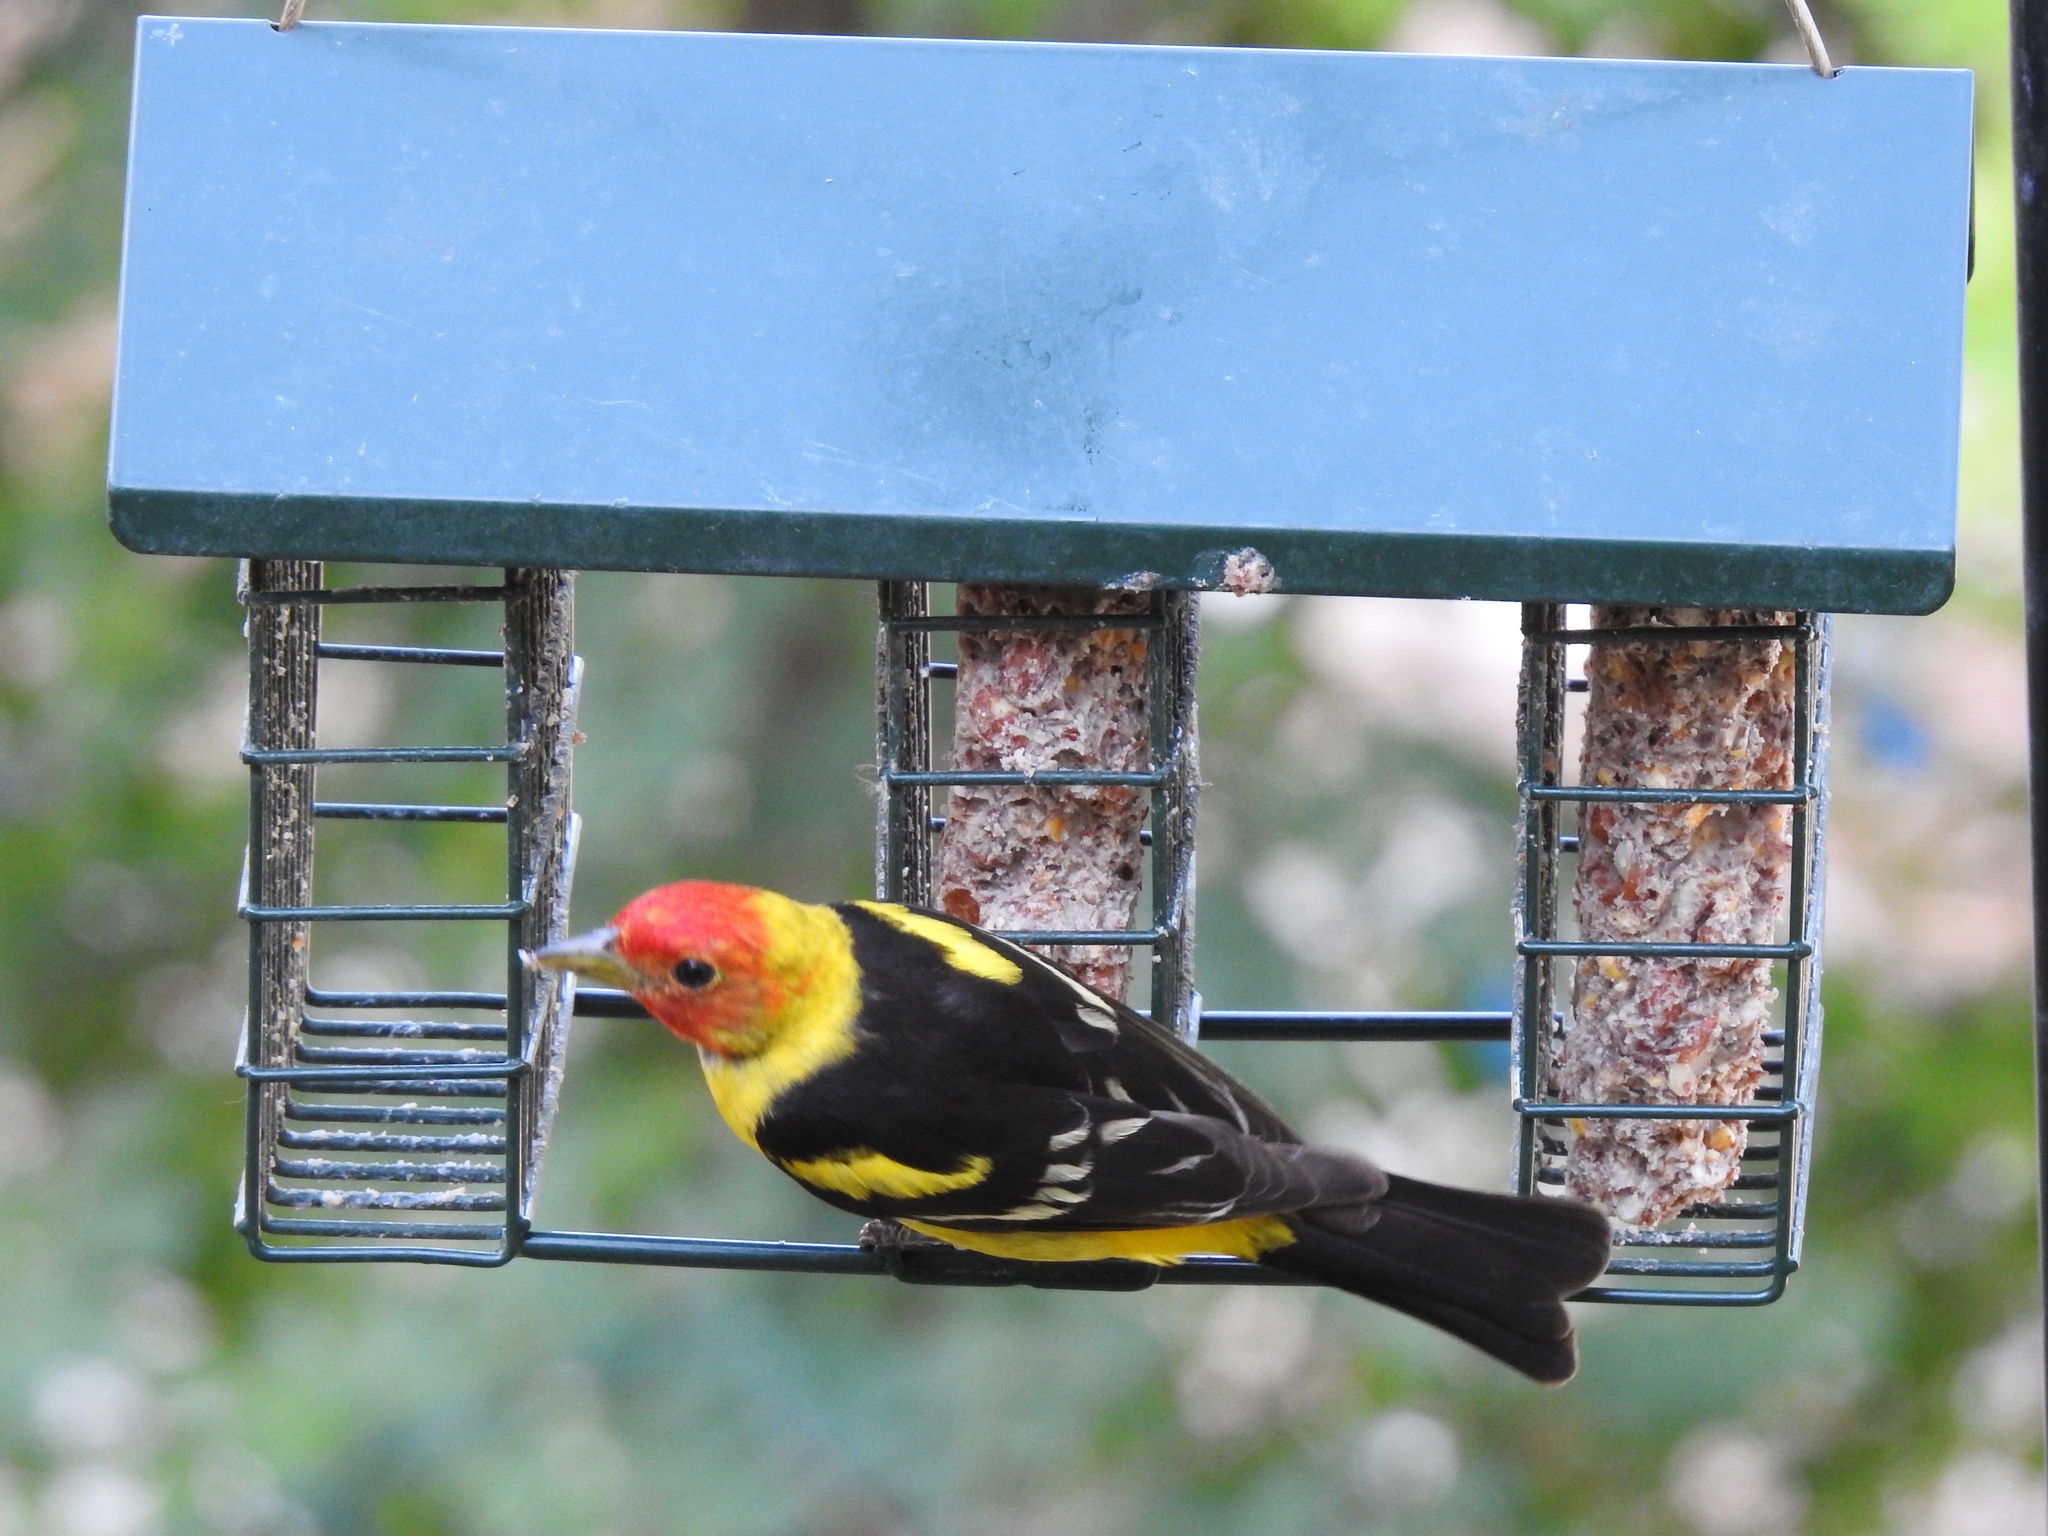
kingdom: Animalia
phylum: Chordata
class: Aves
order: Passeriformes
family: Cardinalidae
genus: Piranga
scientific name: Piranga ludoviciana
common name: Western tanager
